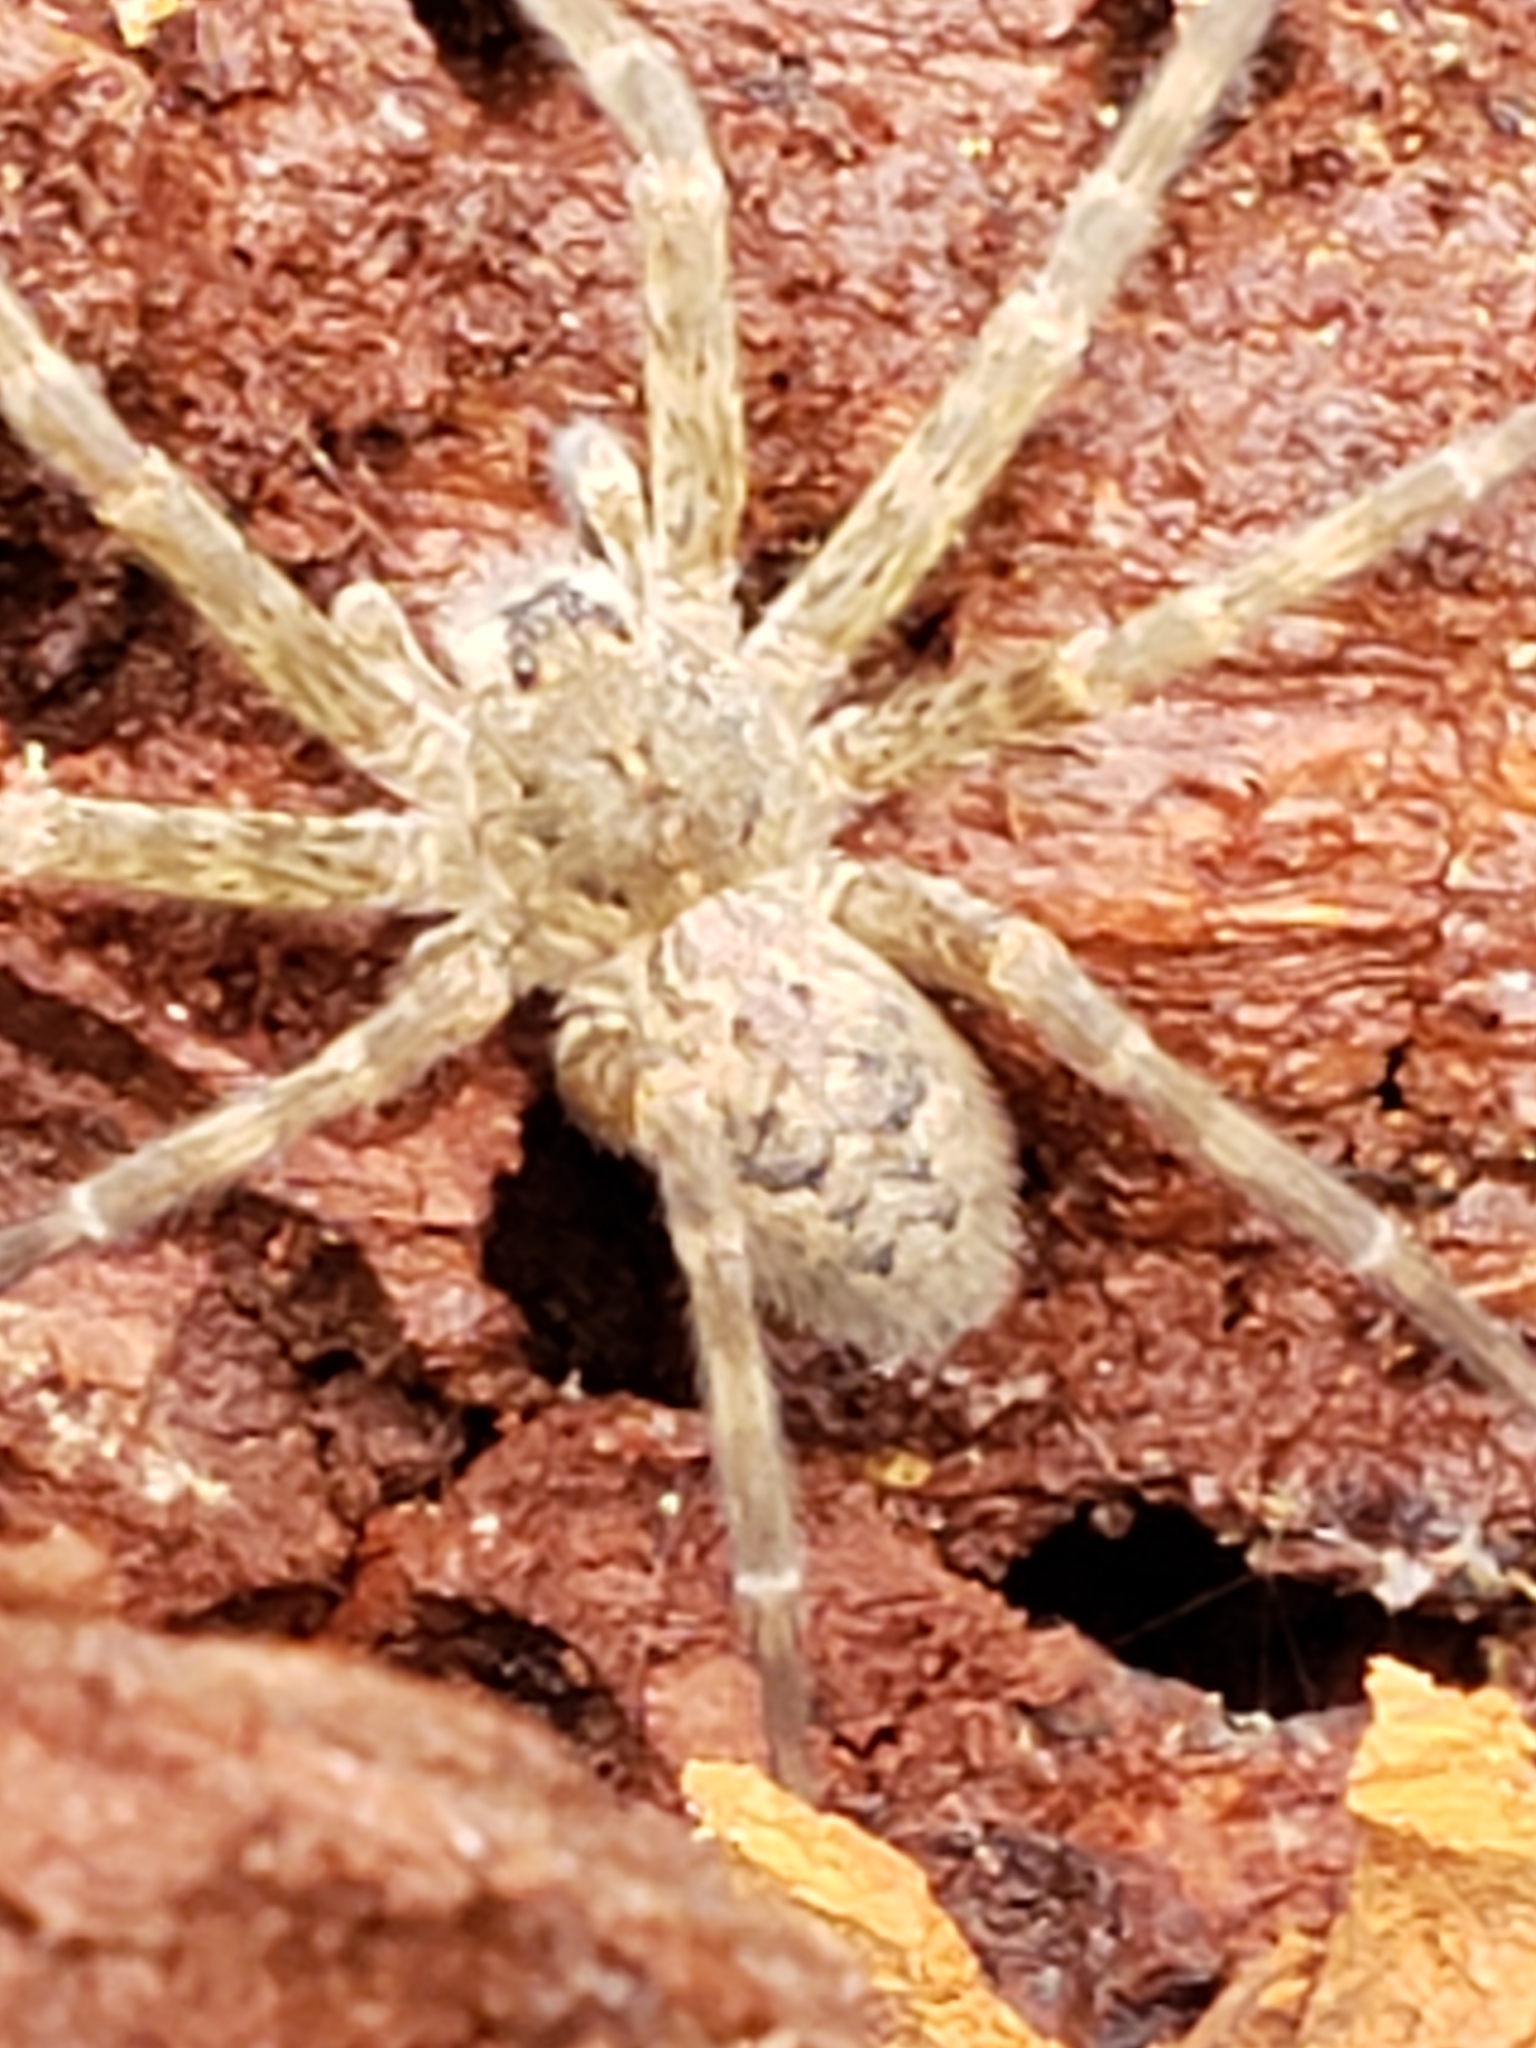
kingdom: Animalia
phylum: Arthropoda
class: Arachnida
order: Araneae
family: Pisauridae
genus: Dolomedes
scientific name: Dolomedes tenebrosus
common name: Dark fishing spider
